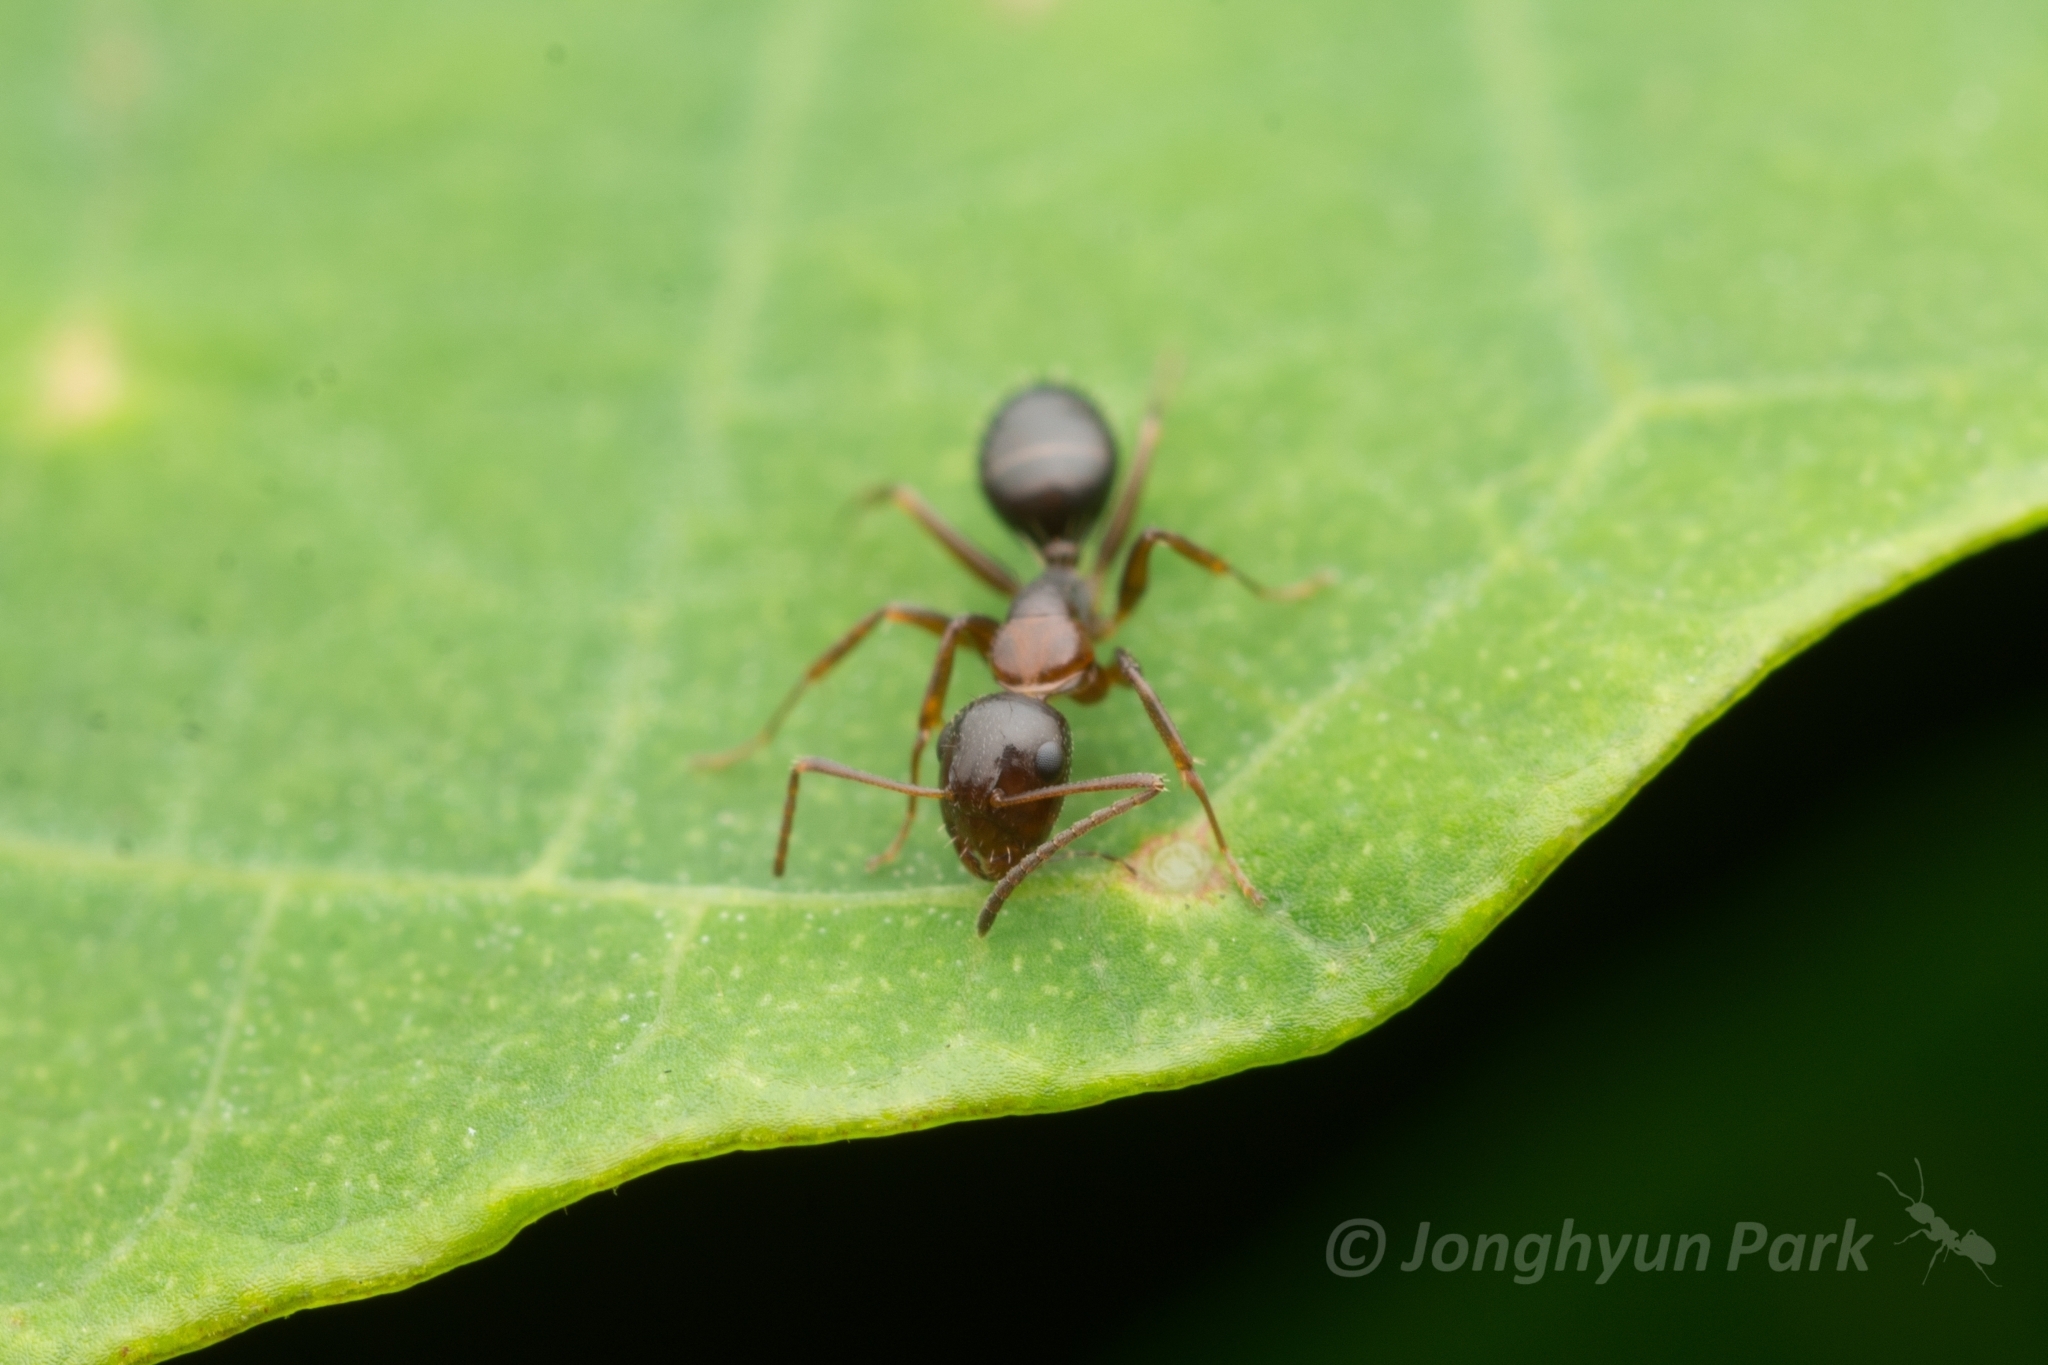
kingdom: Animalia
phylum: Arthropoda
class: Insecta
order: Hymenoptera
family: Formicidae
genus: Camponotus
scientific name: Camponotus vitiosus
